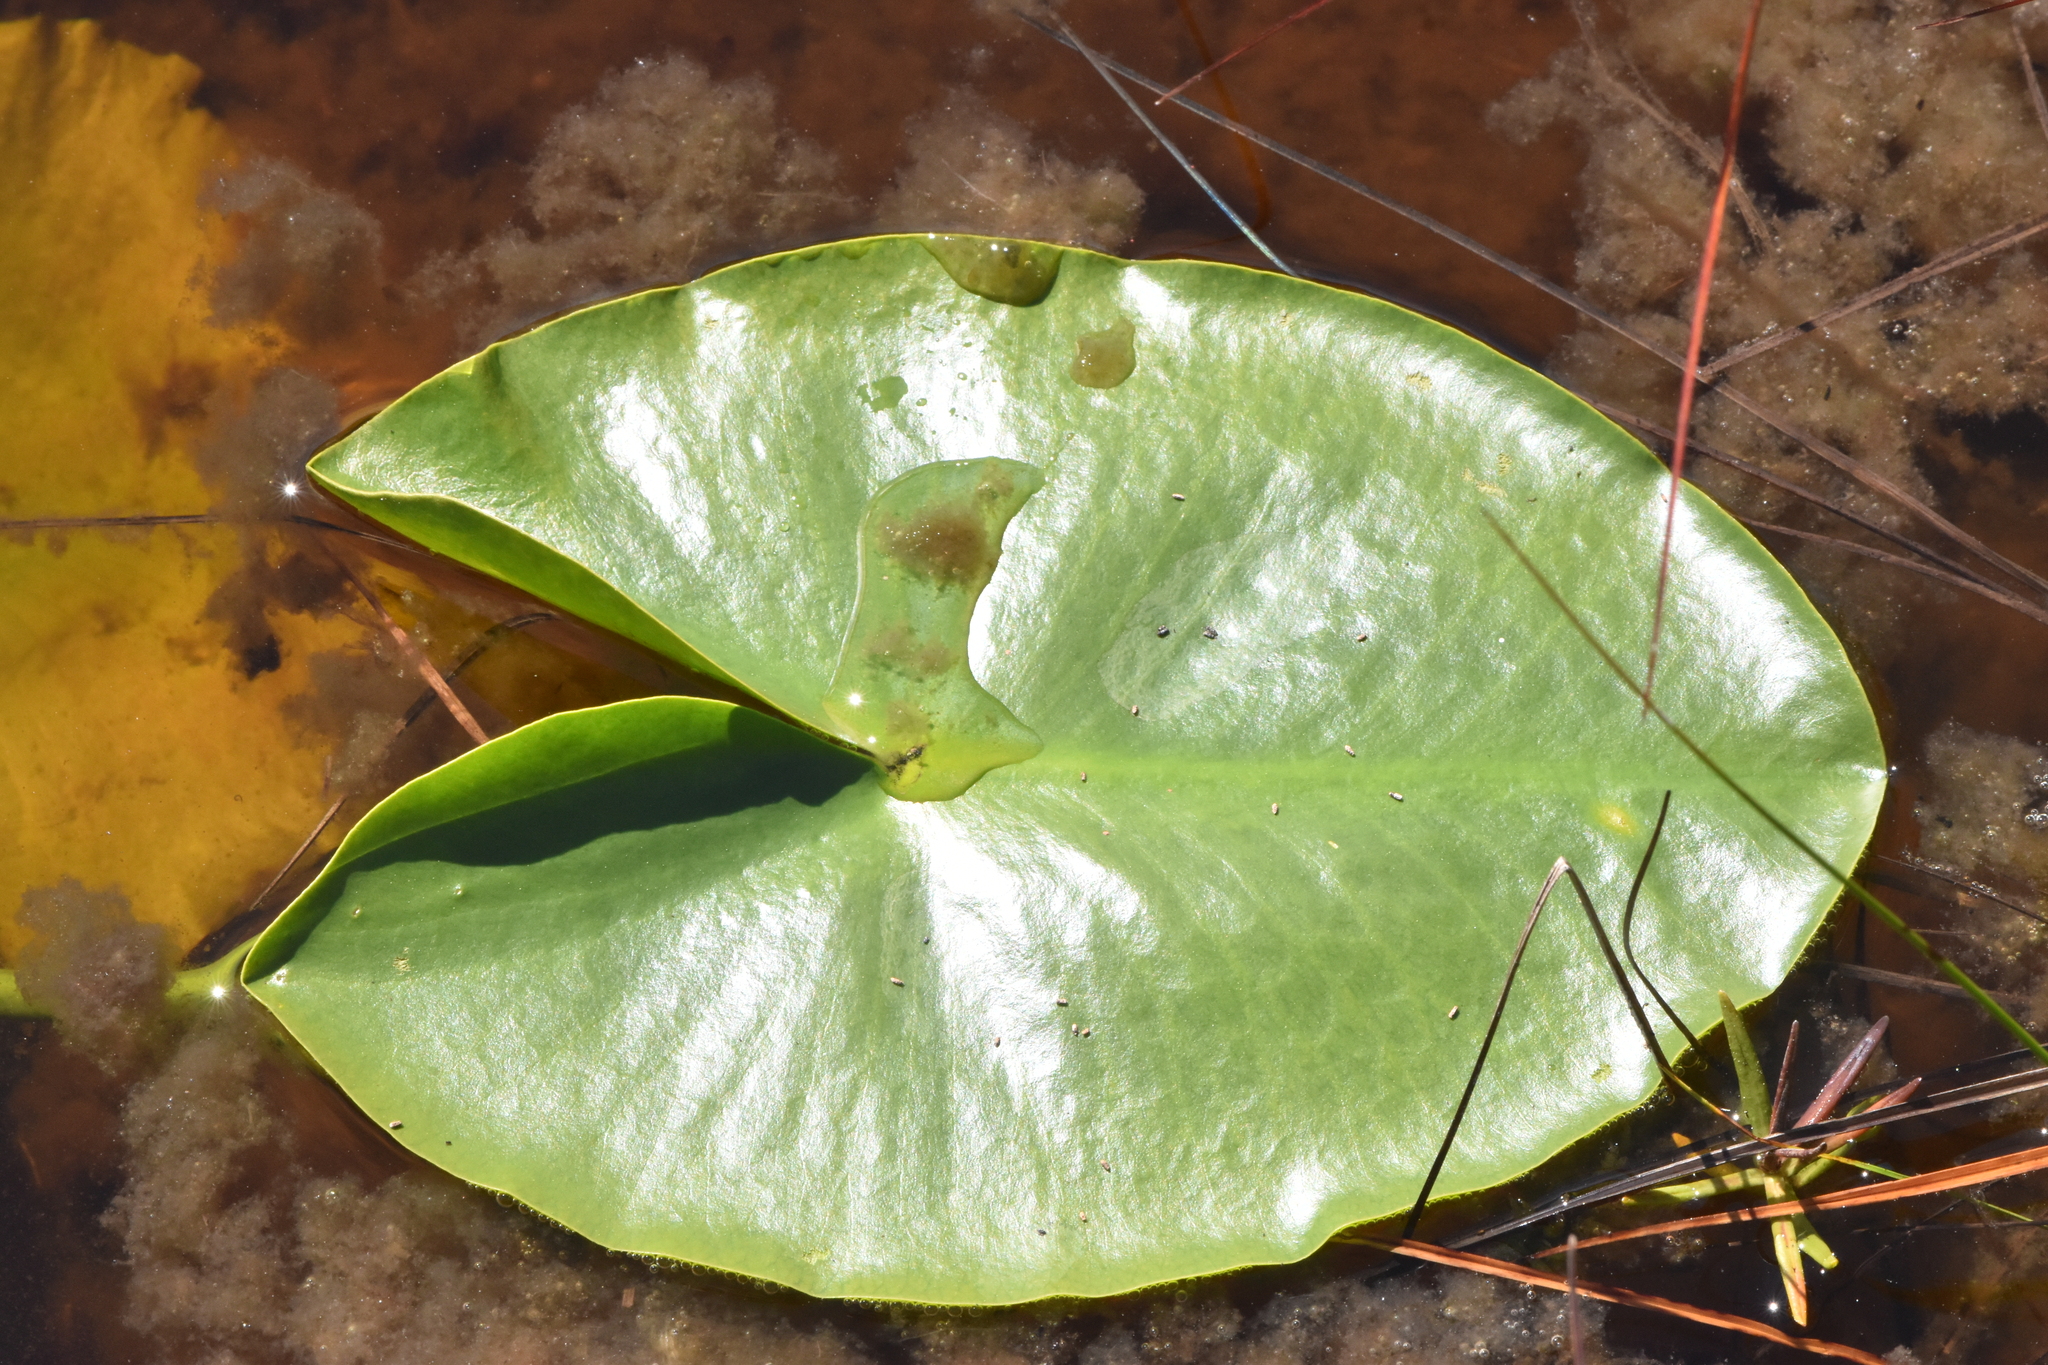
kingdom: Plantae
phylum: Tracheophyta
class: Magnoliopsida
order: Nymphaeales
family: Nymphaeaceae
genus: Nuphar
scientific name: Nuphar polysepala
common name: Rocky mountain cow-lily
